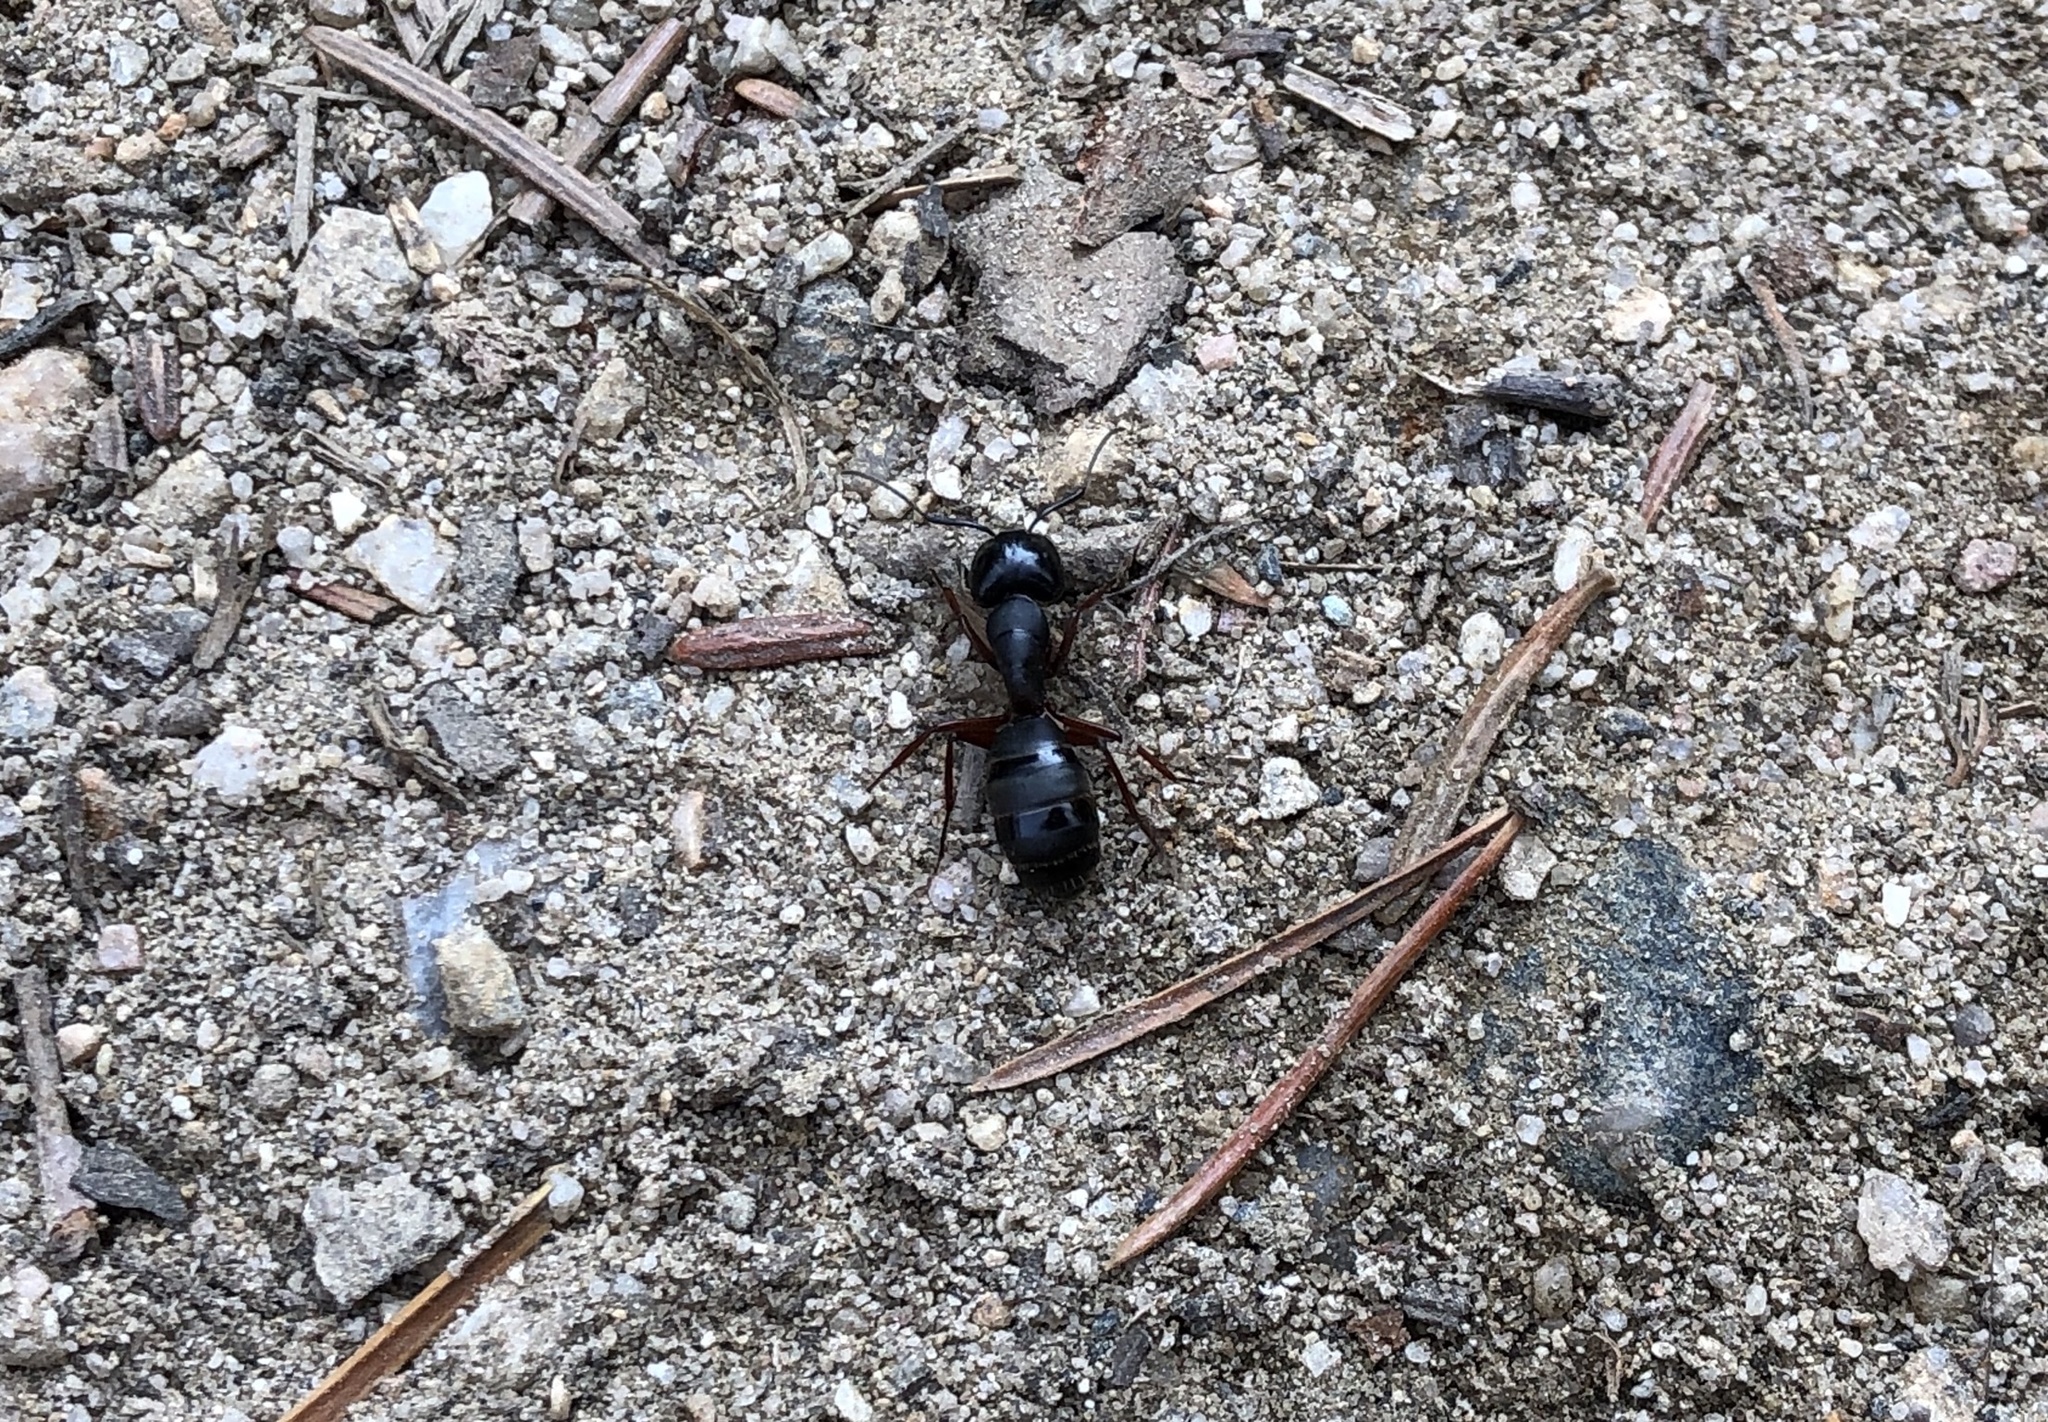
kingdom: Animalia
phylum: Arthropoda
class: Insecta
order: Hymenoptera
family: Formicidae
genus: Camponotus
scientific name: Camponotus modoc
